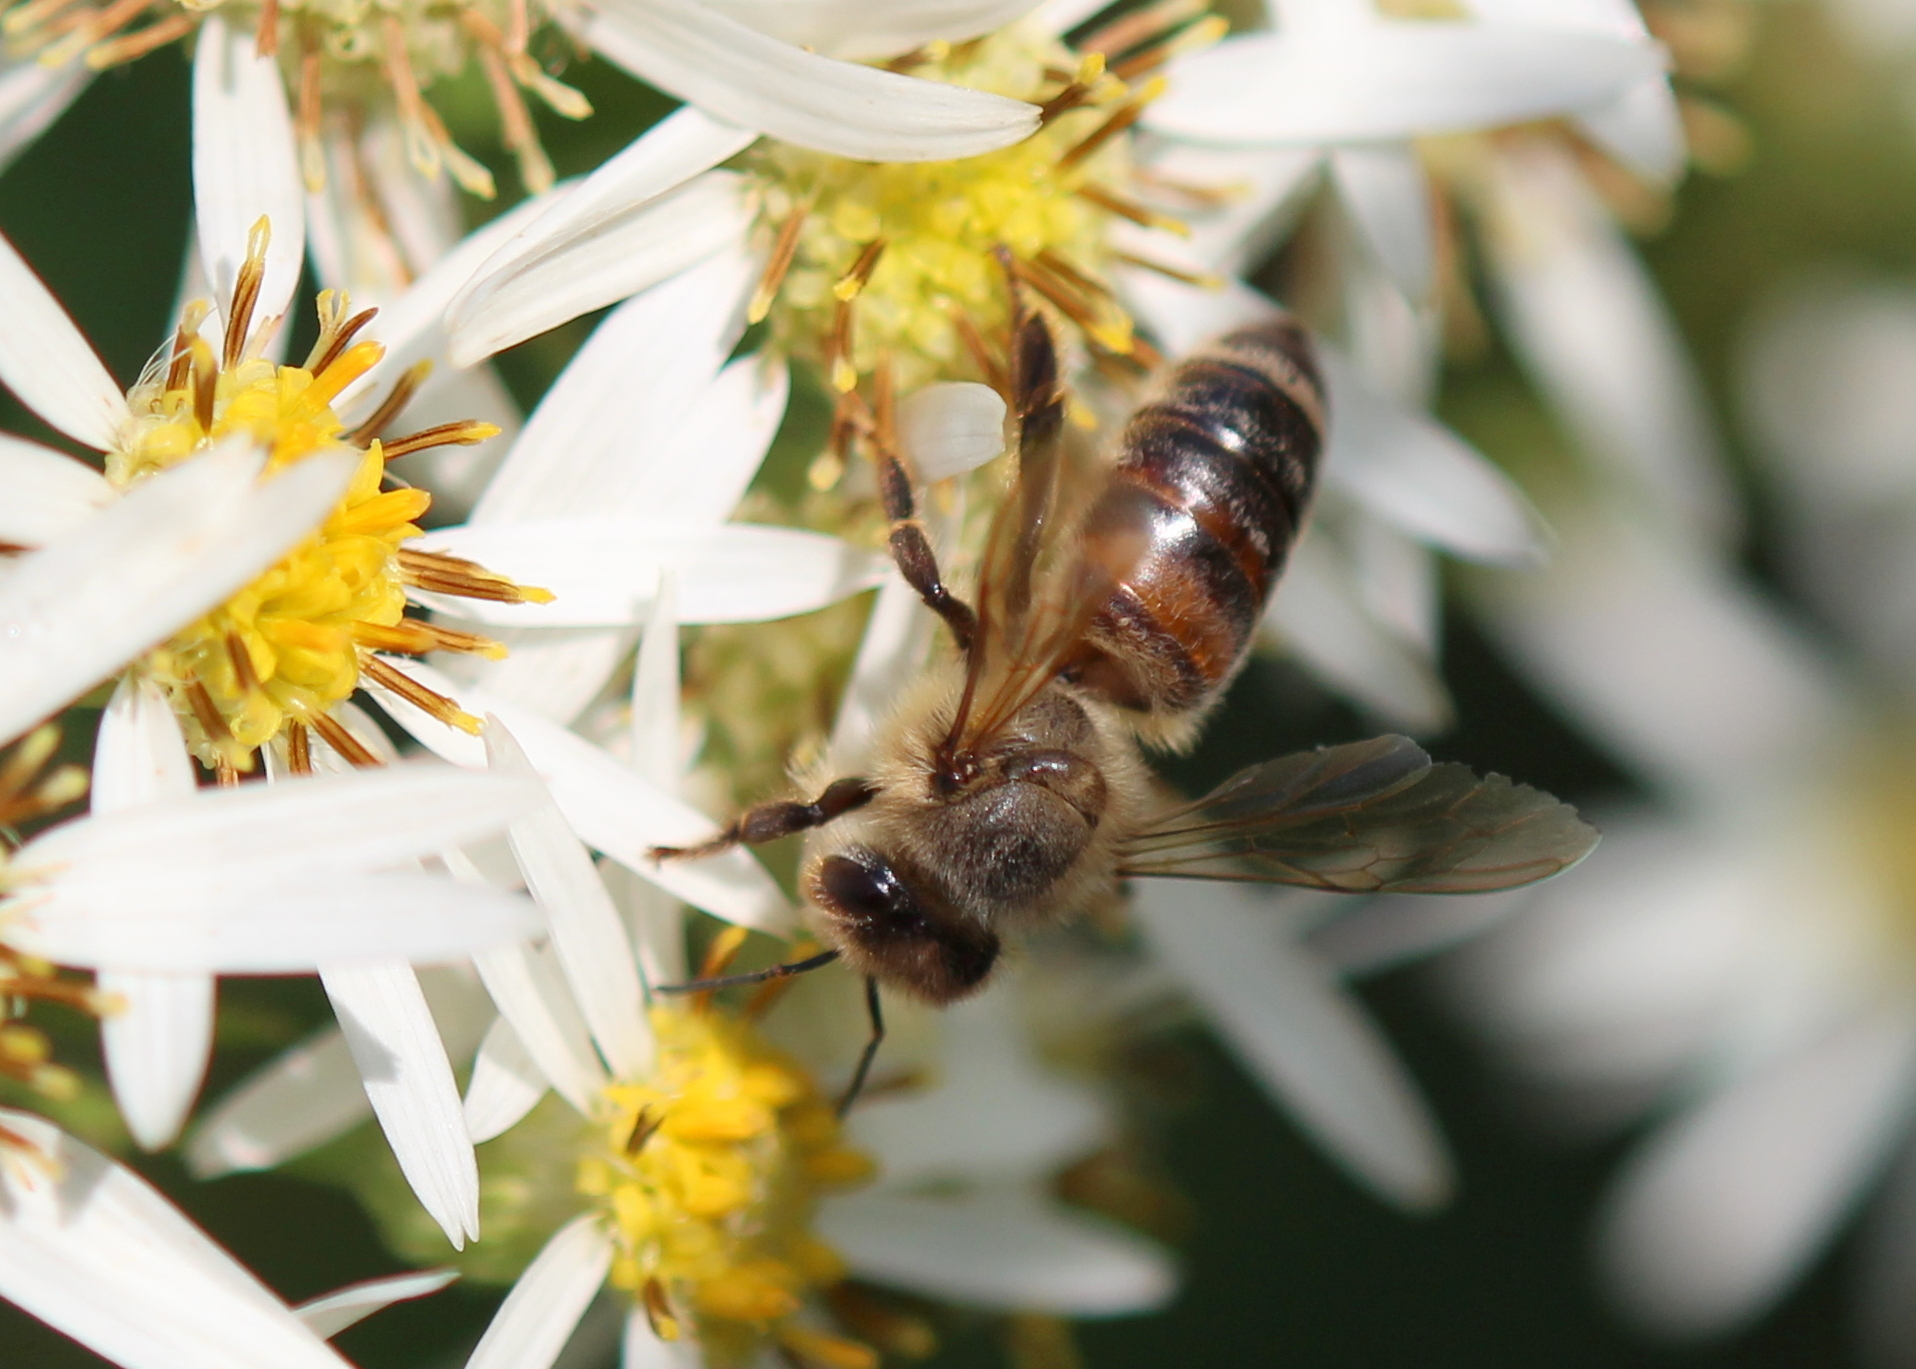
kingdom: Animalia
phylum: Arthropoda
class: Insecta
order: Hymenoptera
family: Apidae
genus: Apis
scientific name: Apis mellifera
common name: Honey bee
